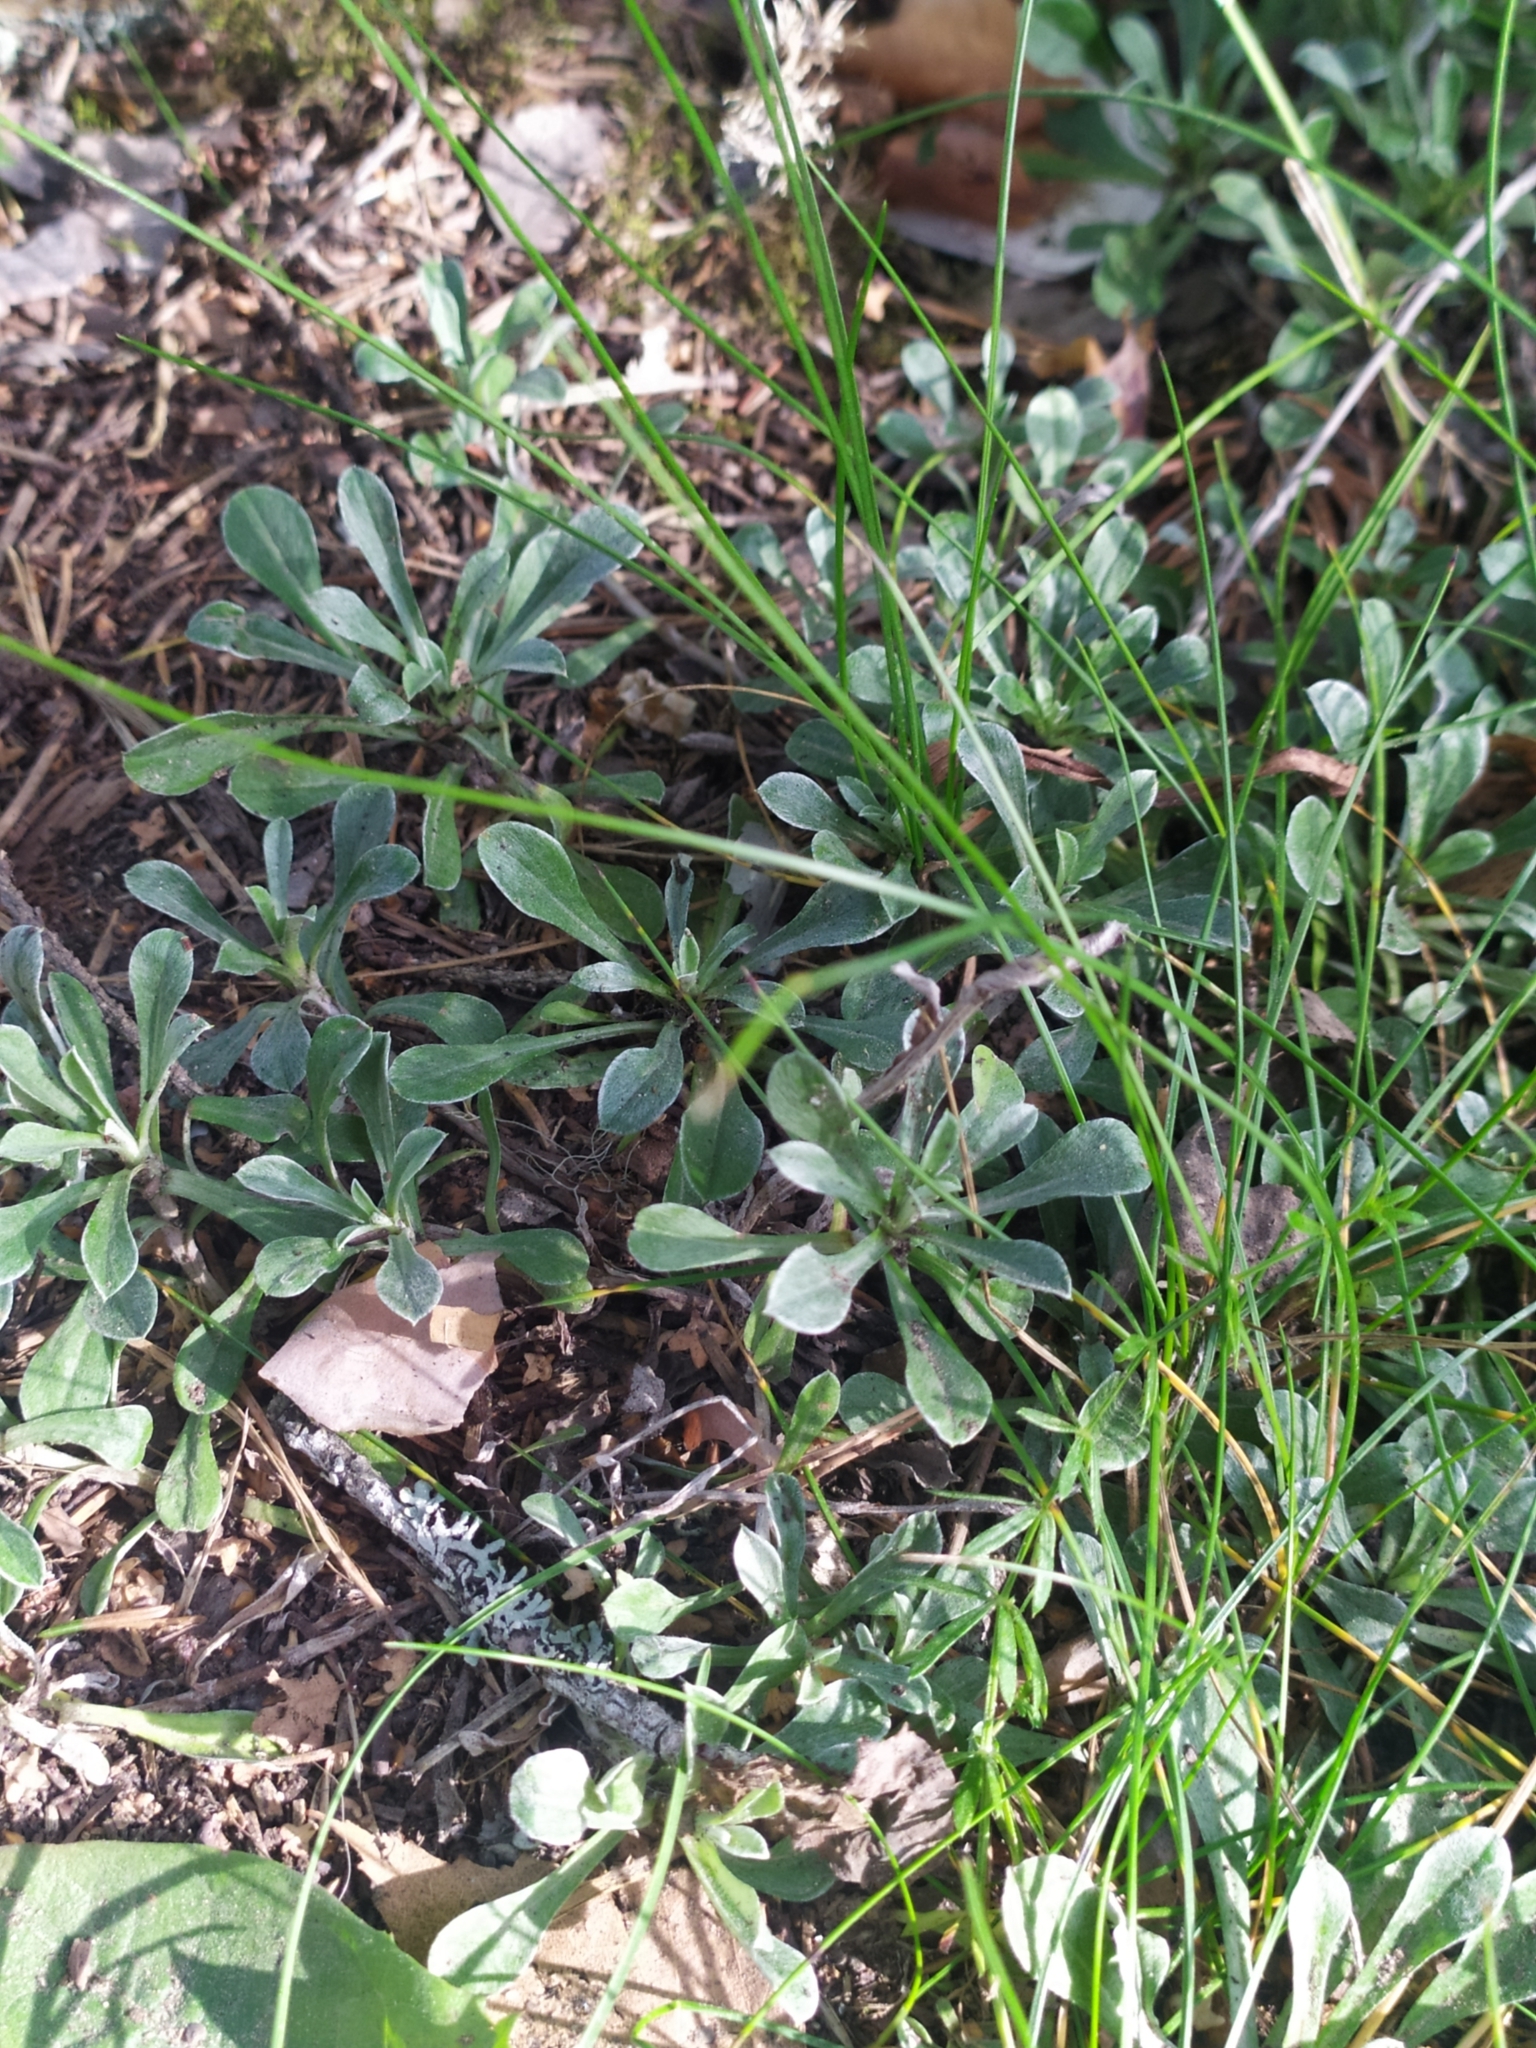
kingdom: Plantae
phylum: Tracheophyta
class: Magnoliopsida
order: Asterales
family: Asteraceae
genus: Antennaria
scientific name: Antennaria dioica
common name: Mountain everlasting
